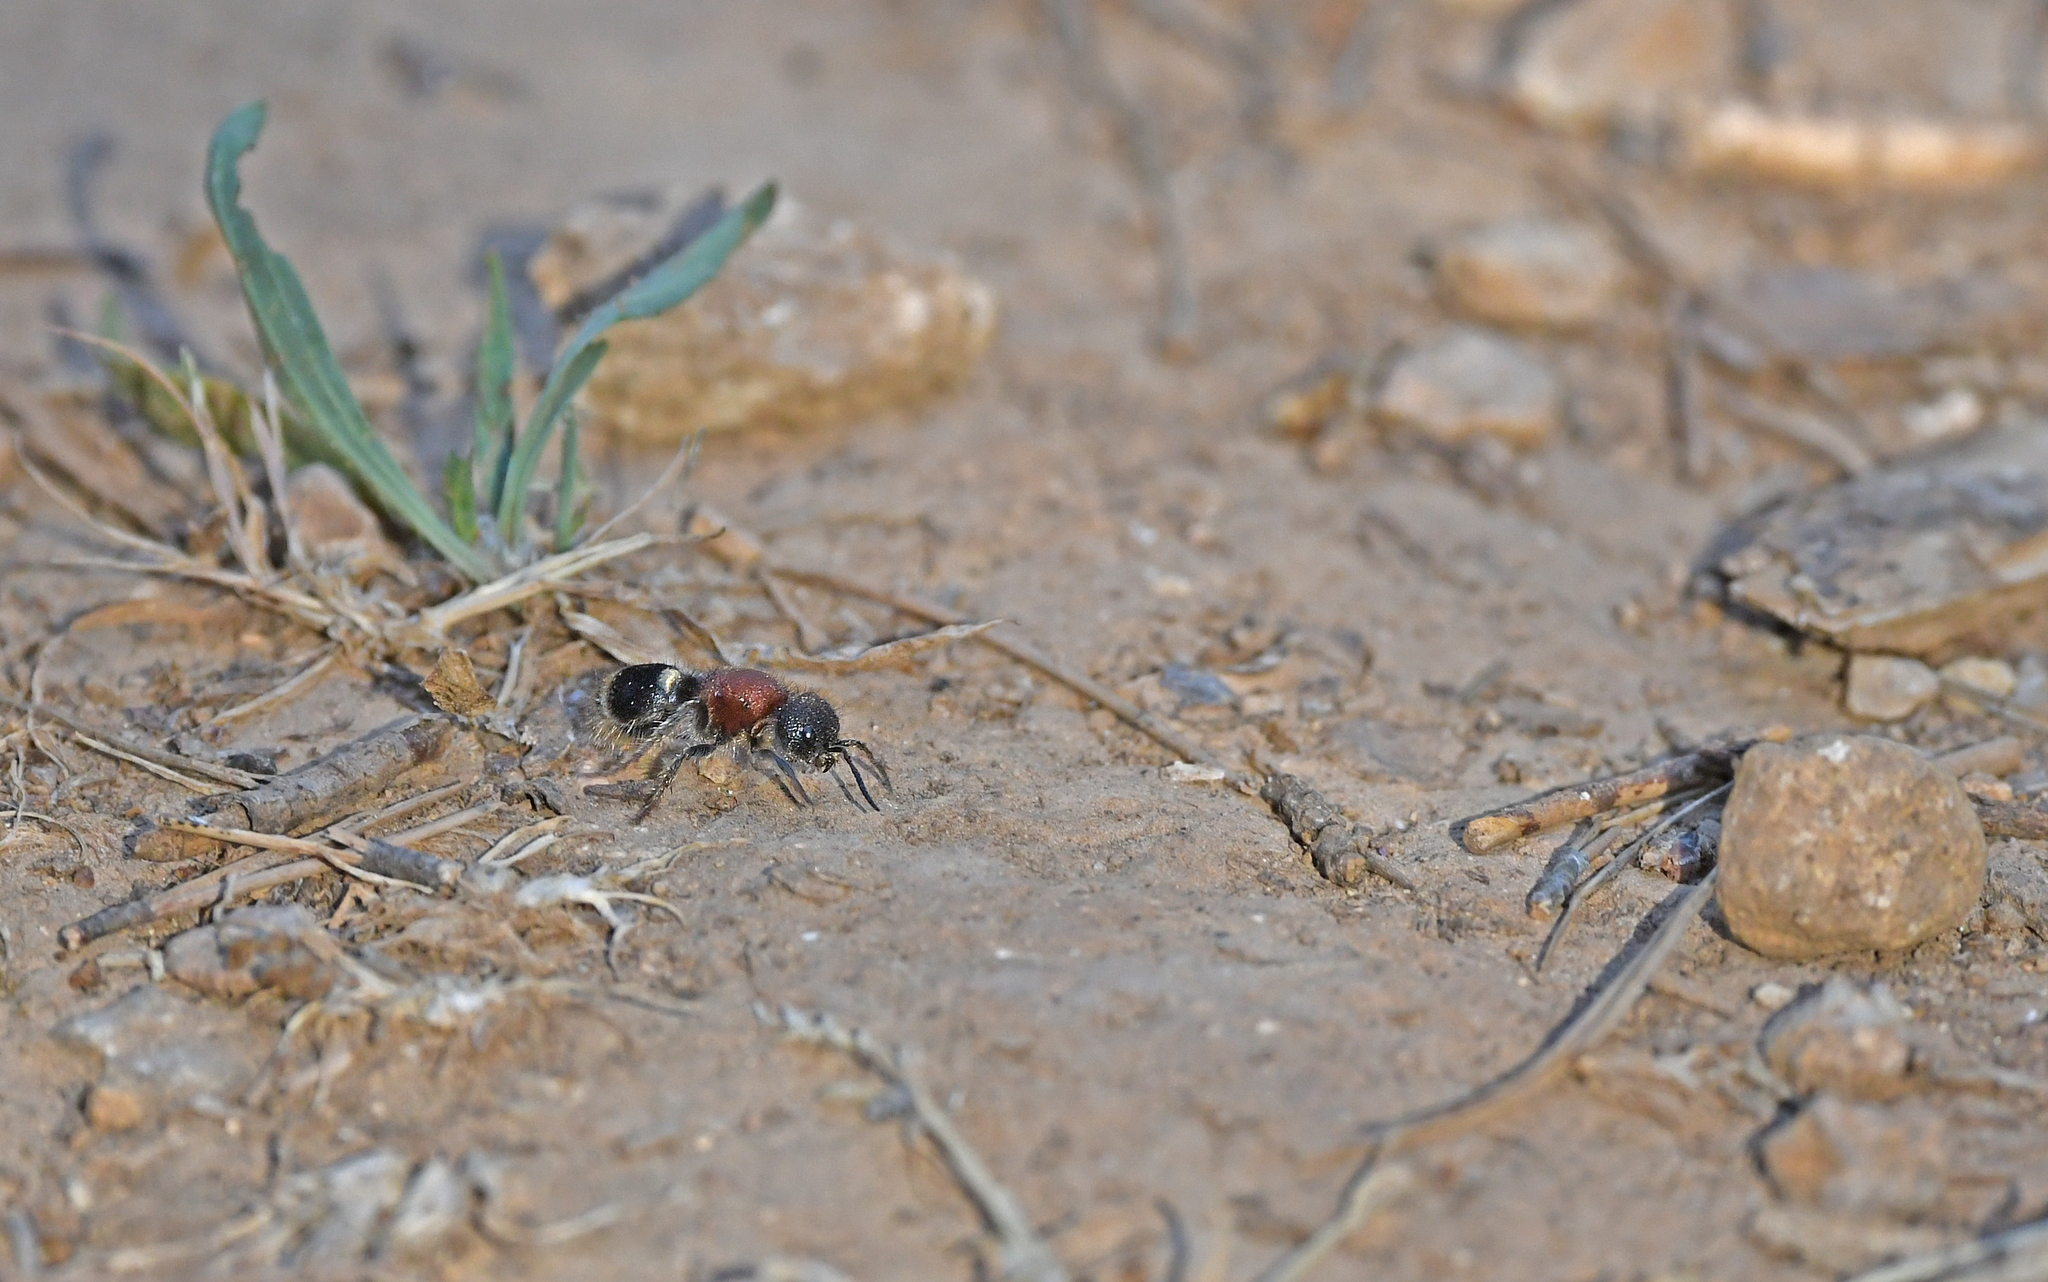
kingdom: Animalia
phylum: Arthropoda
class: Insecta
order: Hymenoptera
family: Mutillidae
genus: Tropidotilla
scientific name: Tropidotilla litoralis
